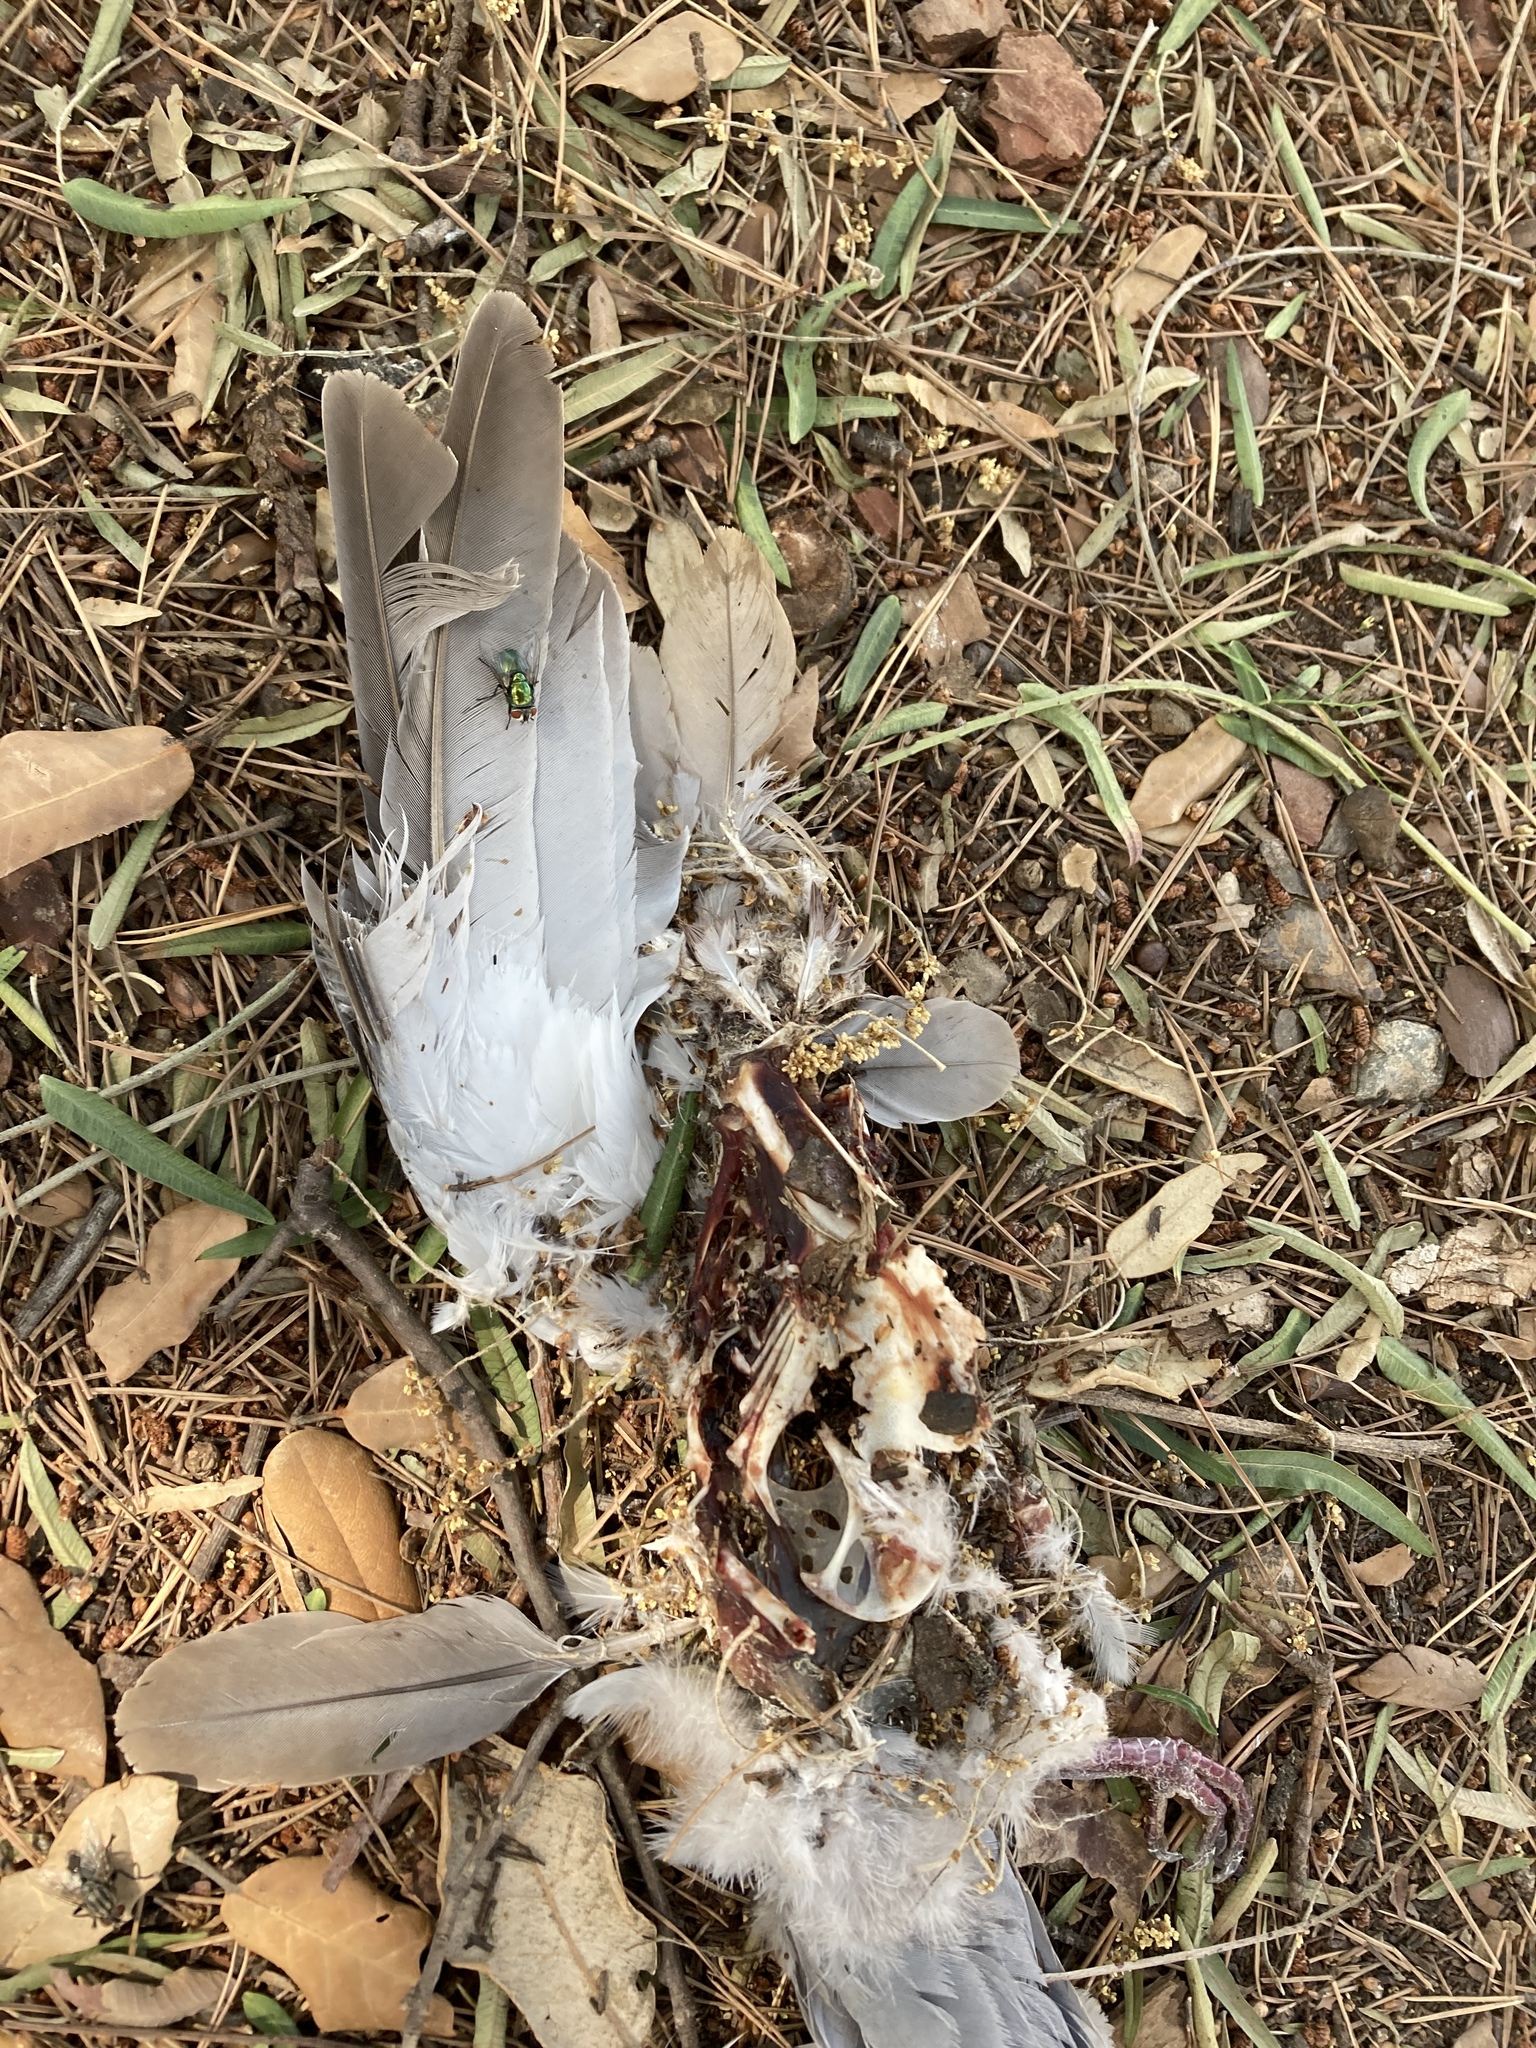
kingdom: Animalia
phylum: Chordata
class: Aves
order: Columbiformes
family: Columbidae
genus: Streptopelia
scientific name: Streptopelia decaocto
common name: Eurasian collared dove
